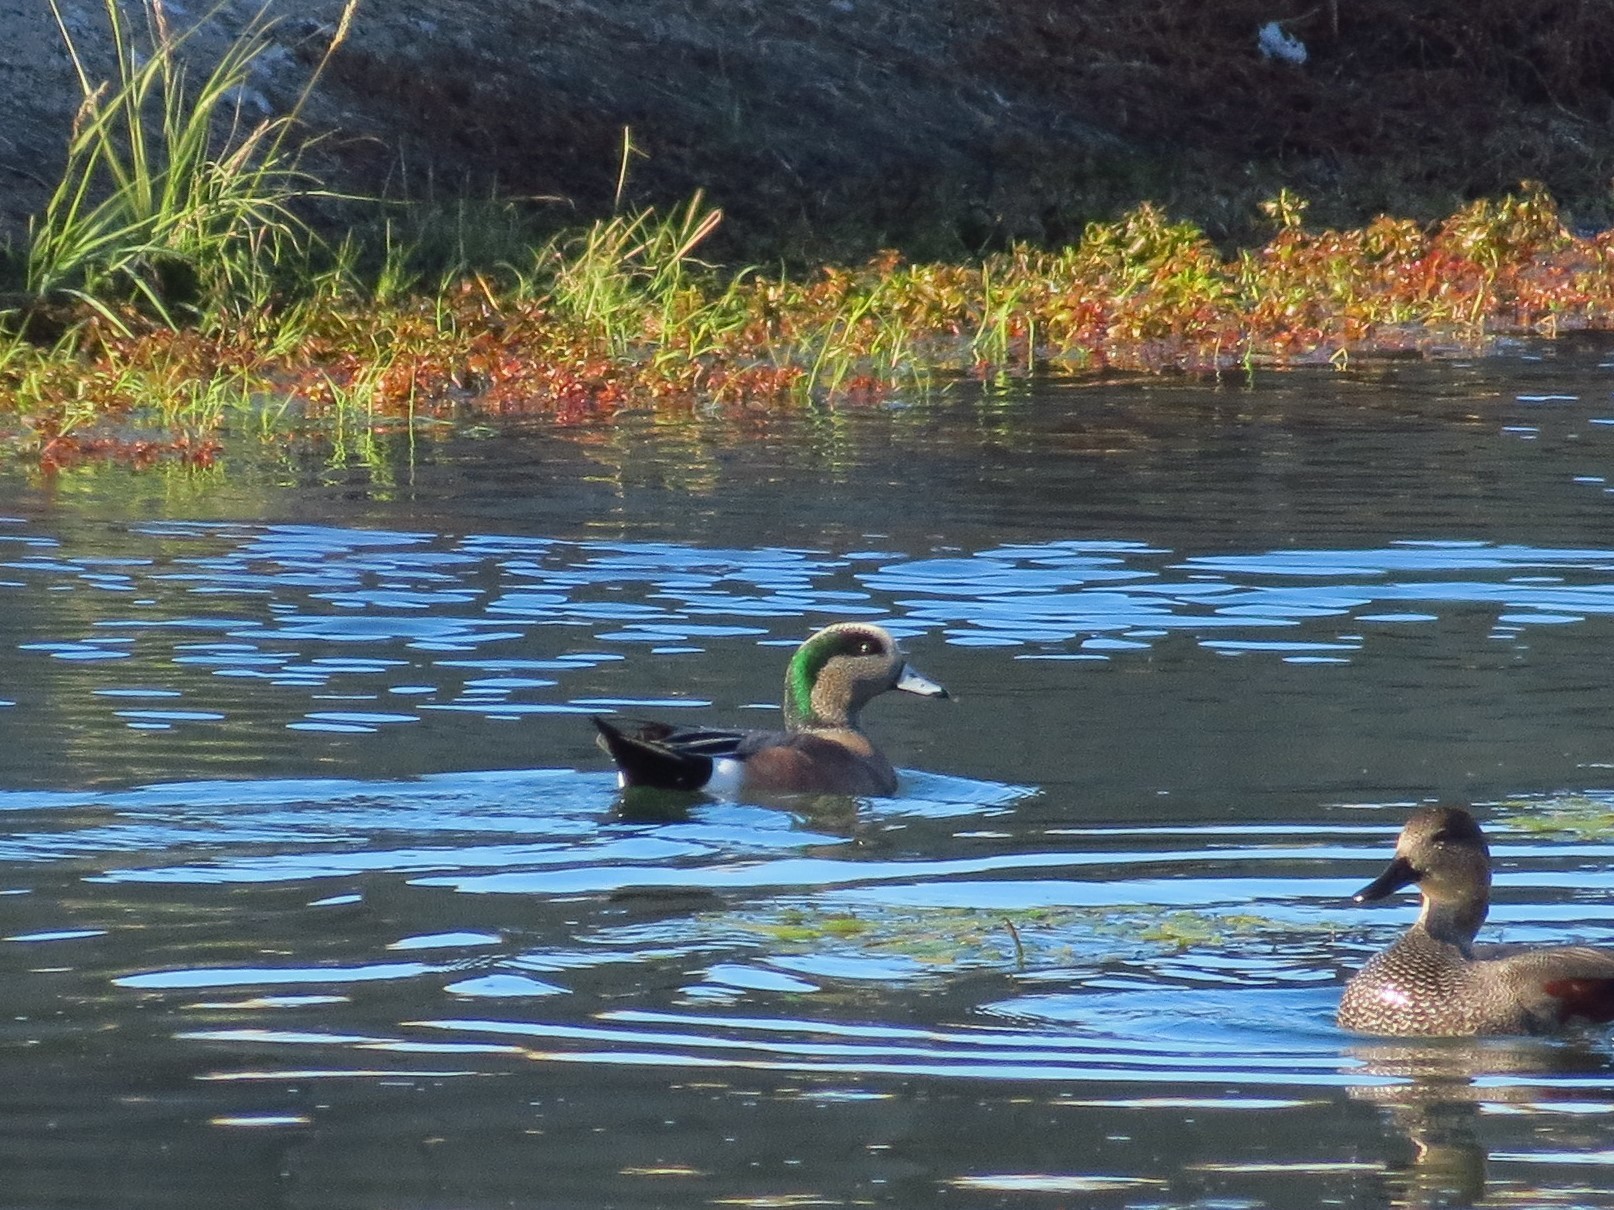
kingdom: Animalia
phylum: Chordata
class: Aves
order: Anseriformes
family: Anatidae
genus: Mareca
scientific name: Mareca americana
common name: American wigeon
